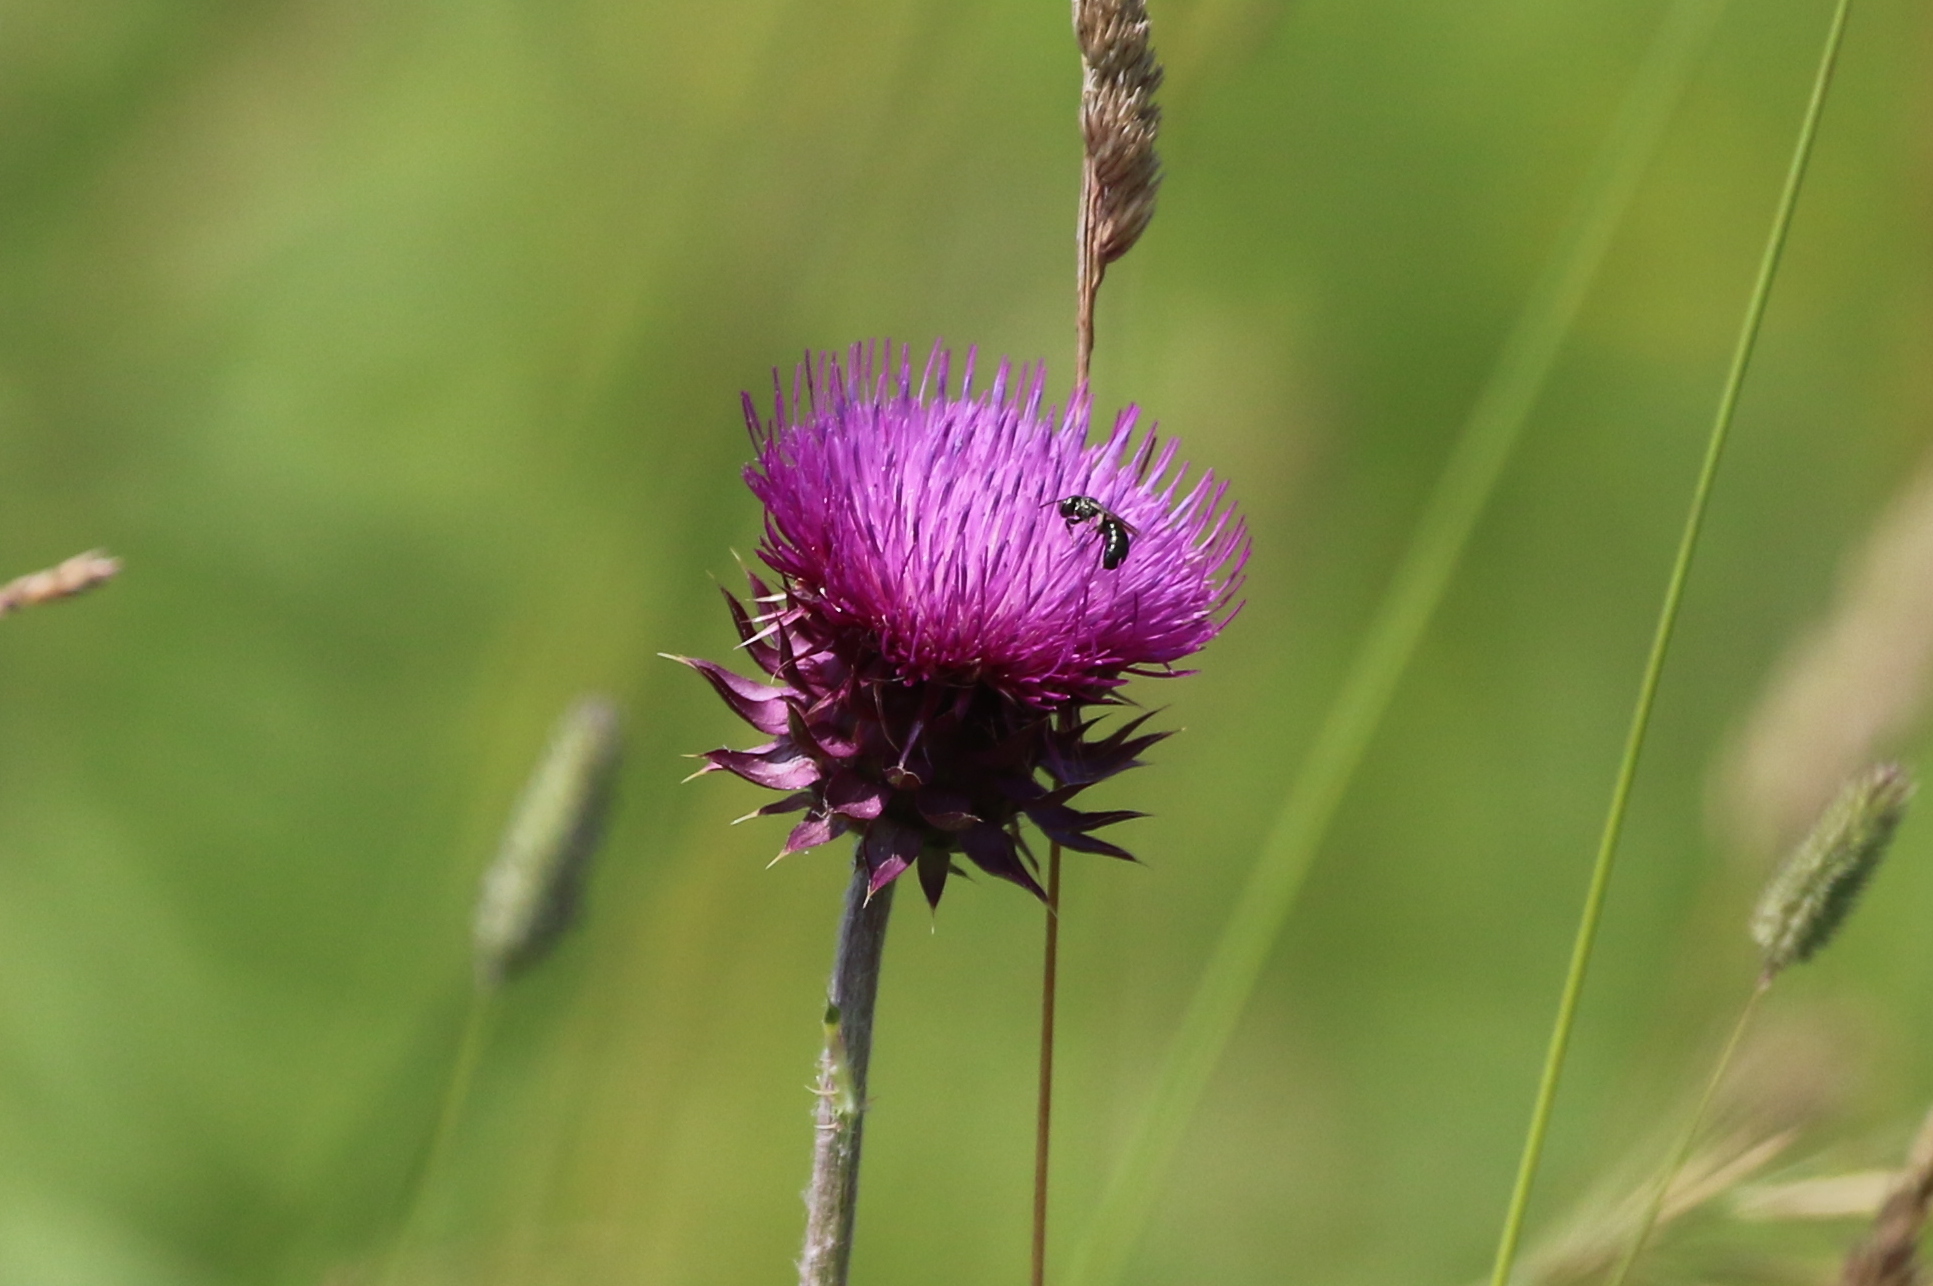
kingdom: Plantae
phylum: Tracheophyta
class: Magnoliopsida
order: Asterales
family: Asteraceae
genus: Carduus
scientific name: Carduus nutans
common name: Musk thistle
